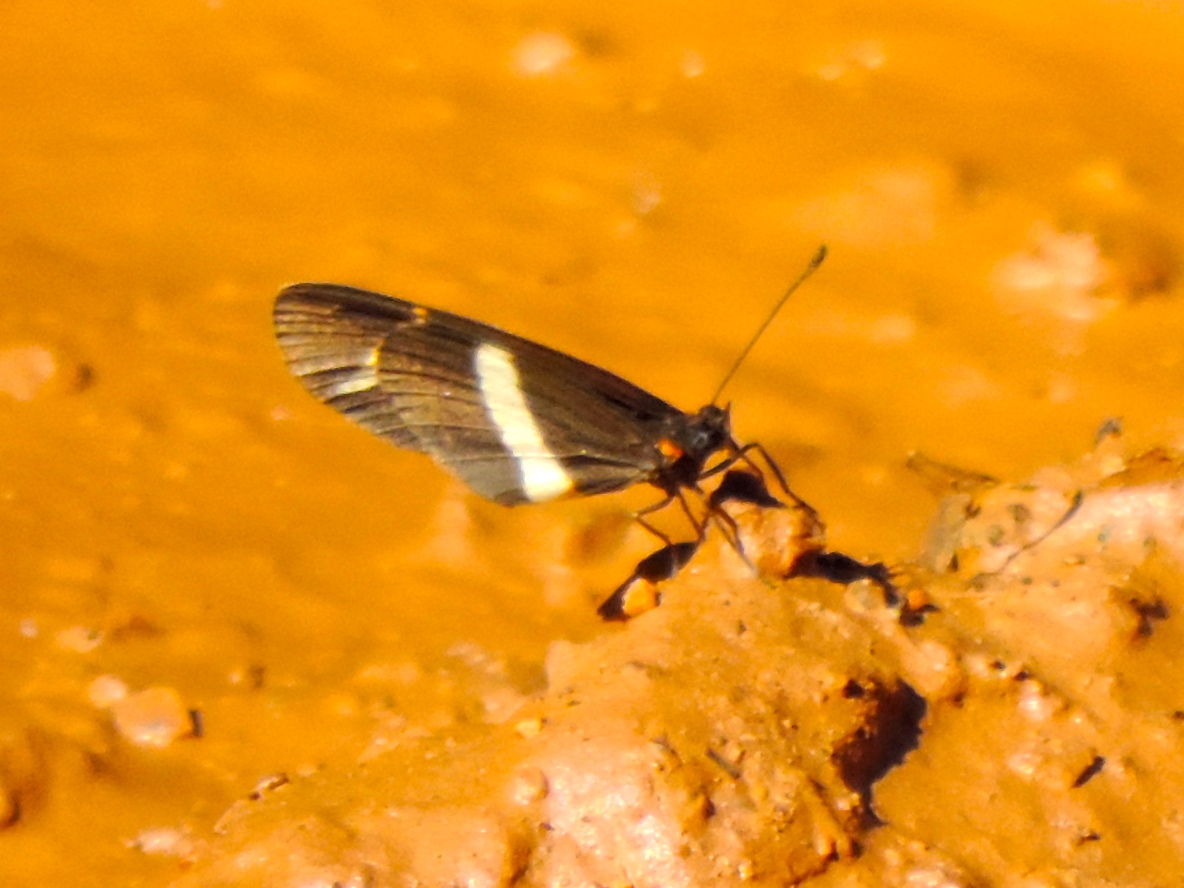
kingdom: Animalia
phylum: Arthropoda
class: Insecta
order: Lepidoptera
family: Nymphalidae
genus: Microtia
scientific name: Microtia elva
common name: Elf
